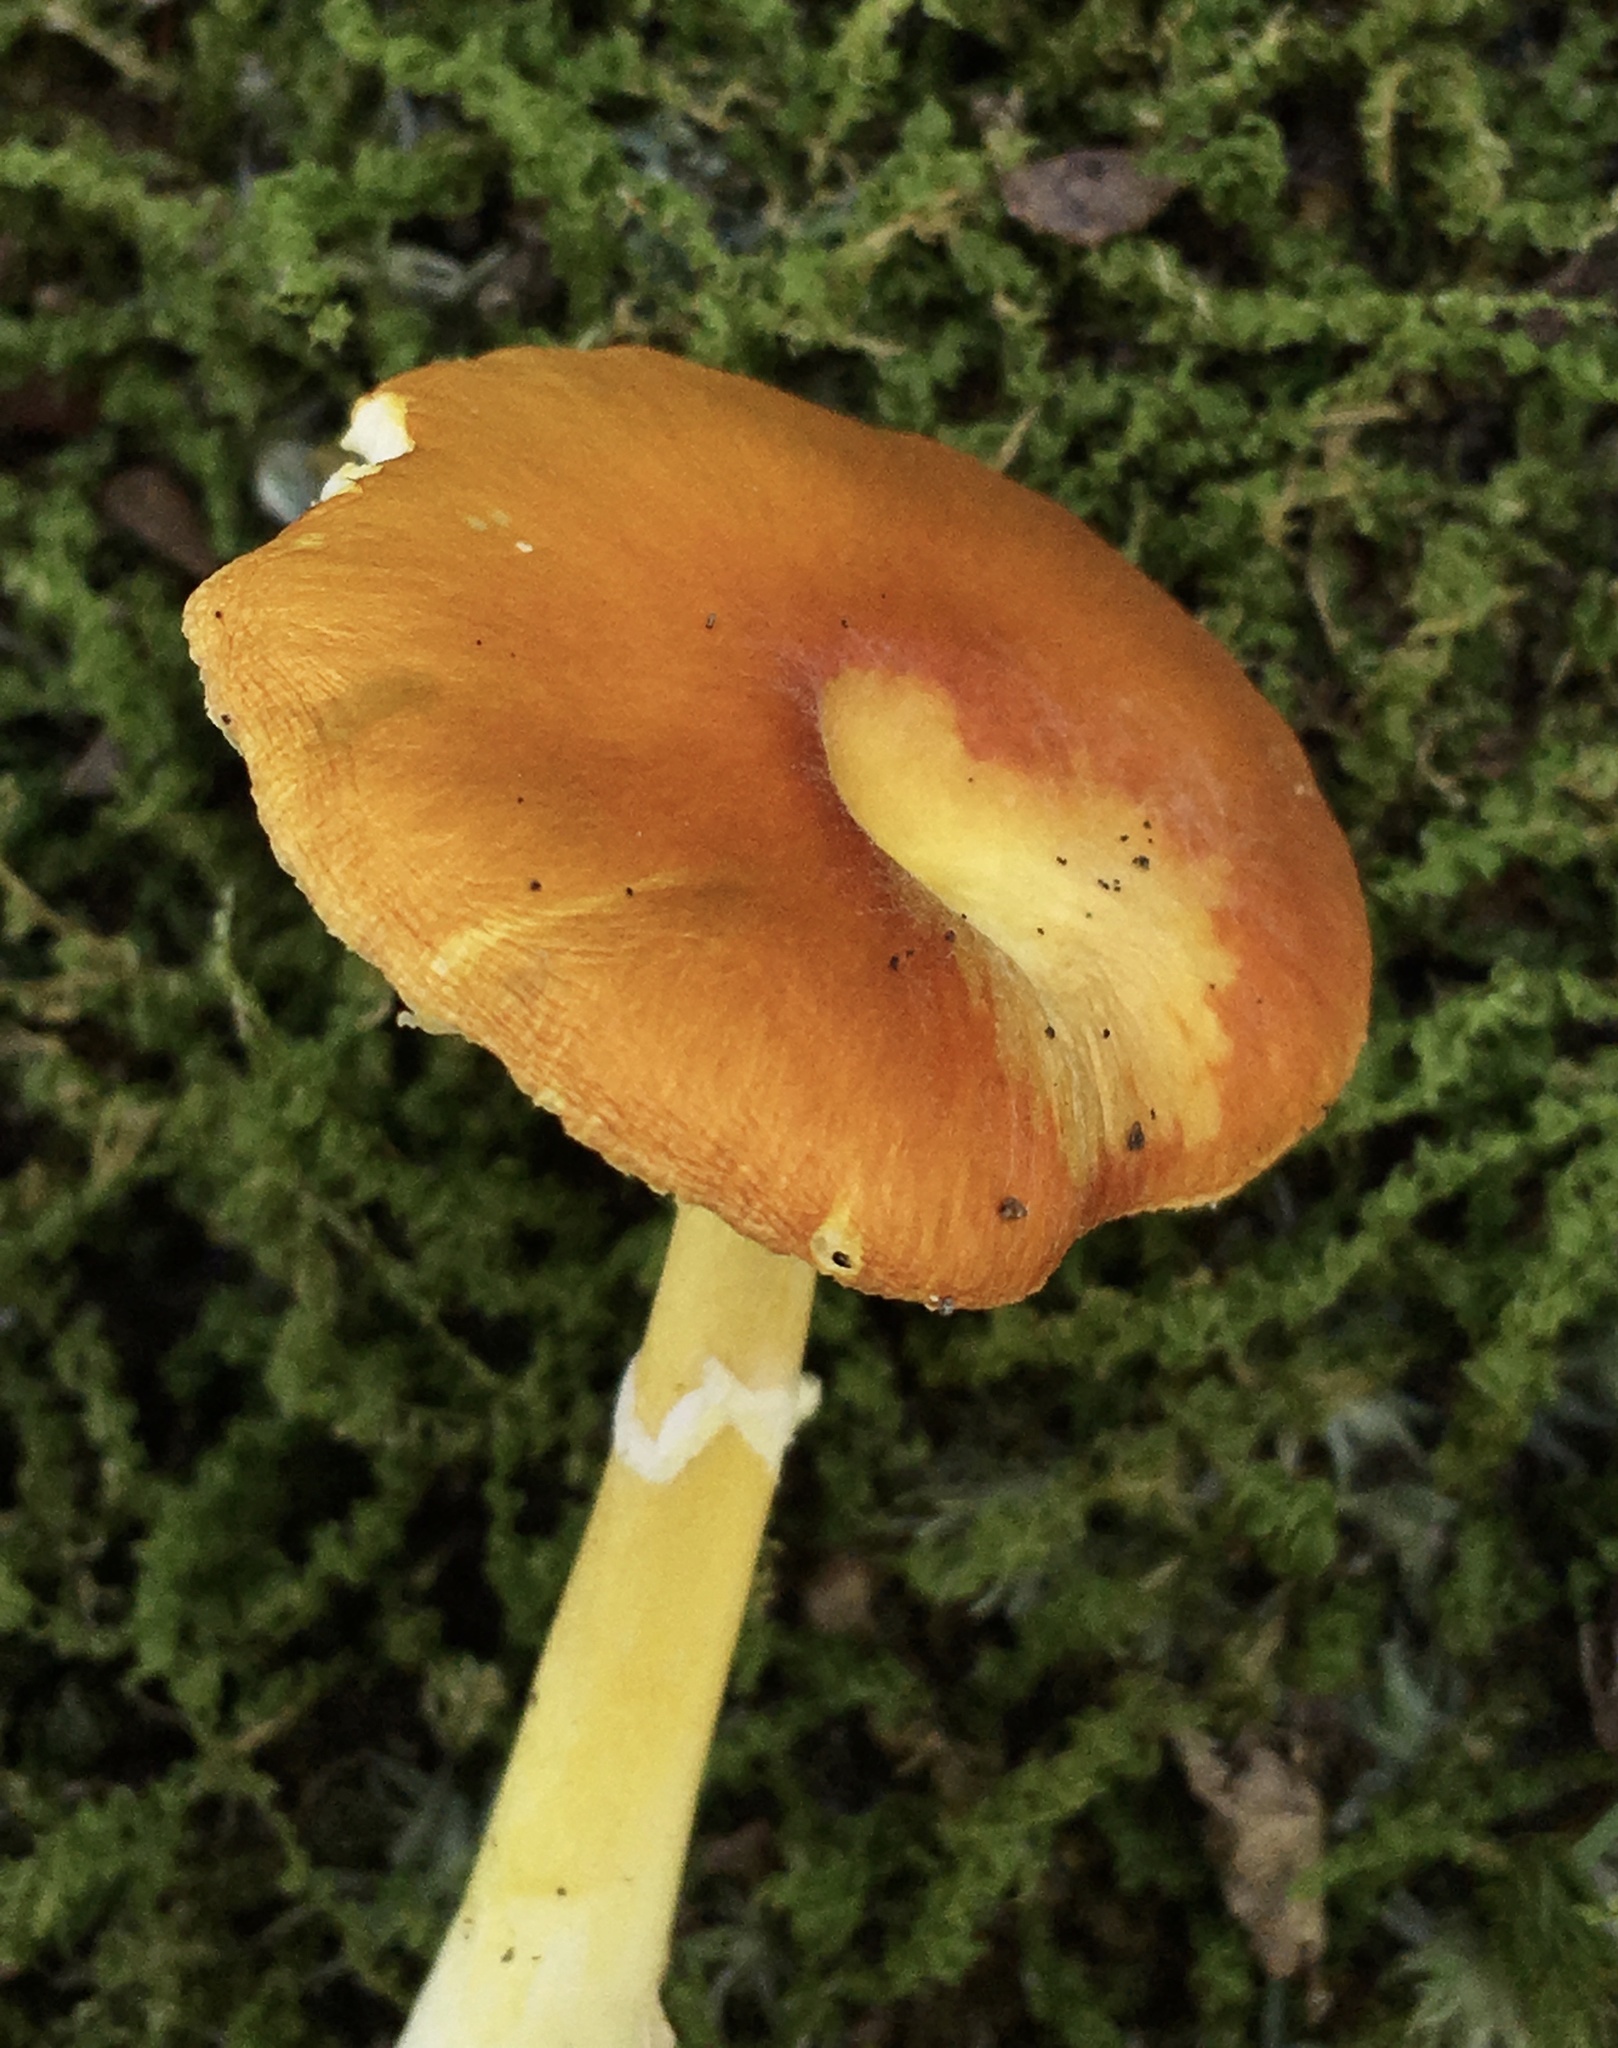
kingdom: Fungi
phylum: Basidiomycota
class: Agaricomycetes
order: Agaricales
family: Amanitaceae
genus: Amanita
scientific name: Amanita flavoconia
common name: Yellow patches
